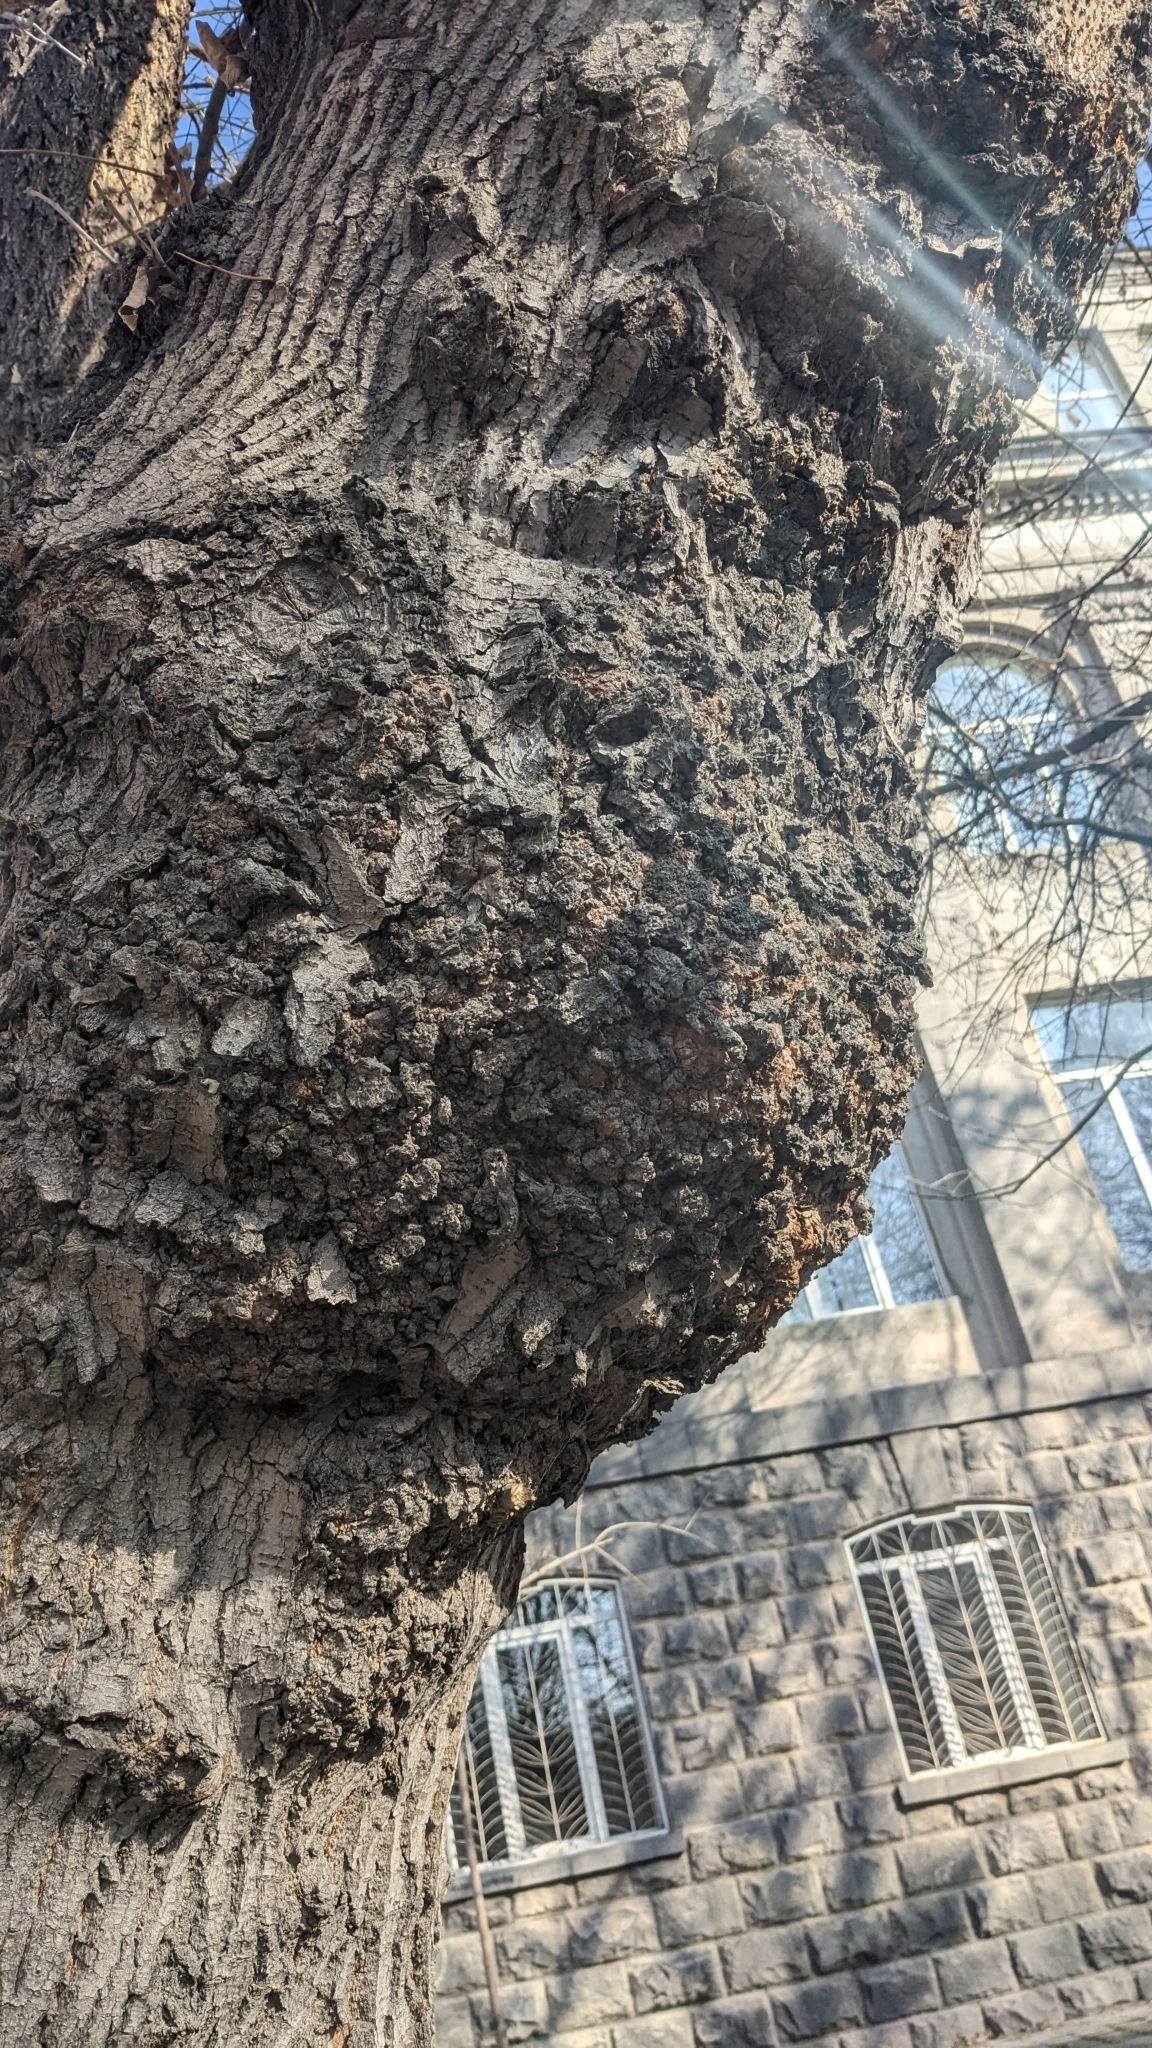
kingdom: Bacteria
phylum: Proteobacteria
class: Alphaproteobacteria
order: Rhizobiales
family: Rhizobiaceae
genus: Rhizobium
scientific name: Rhizobium Agrobacterium radiobacter
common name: Bacterial crown gall
